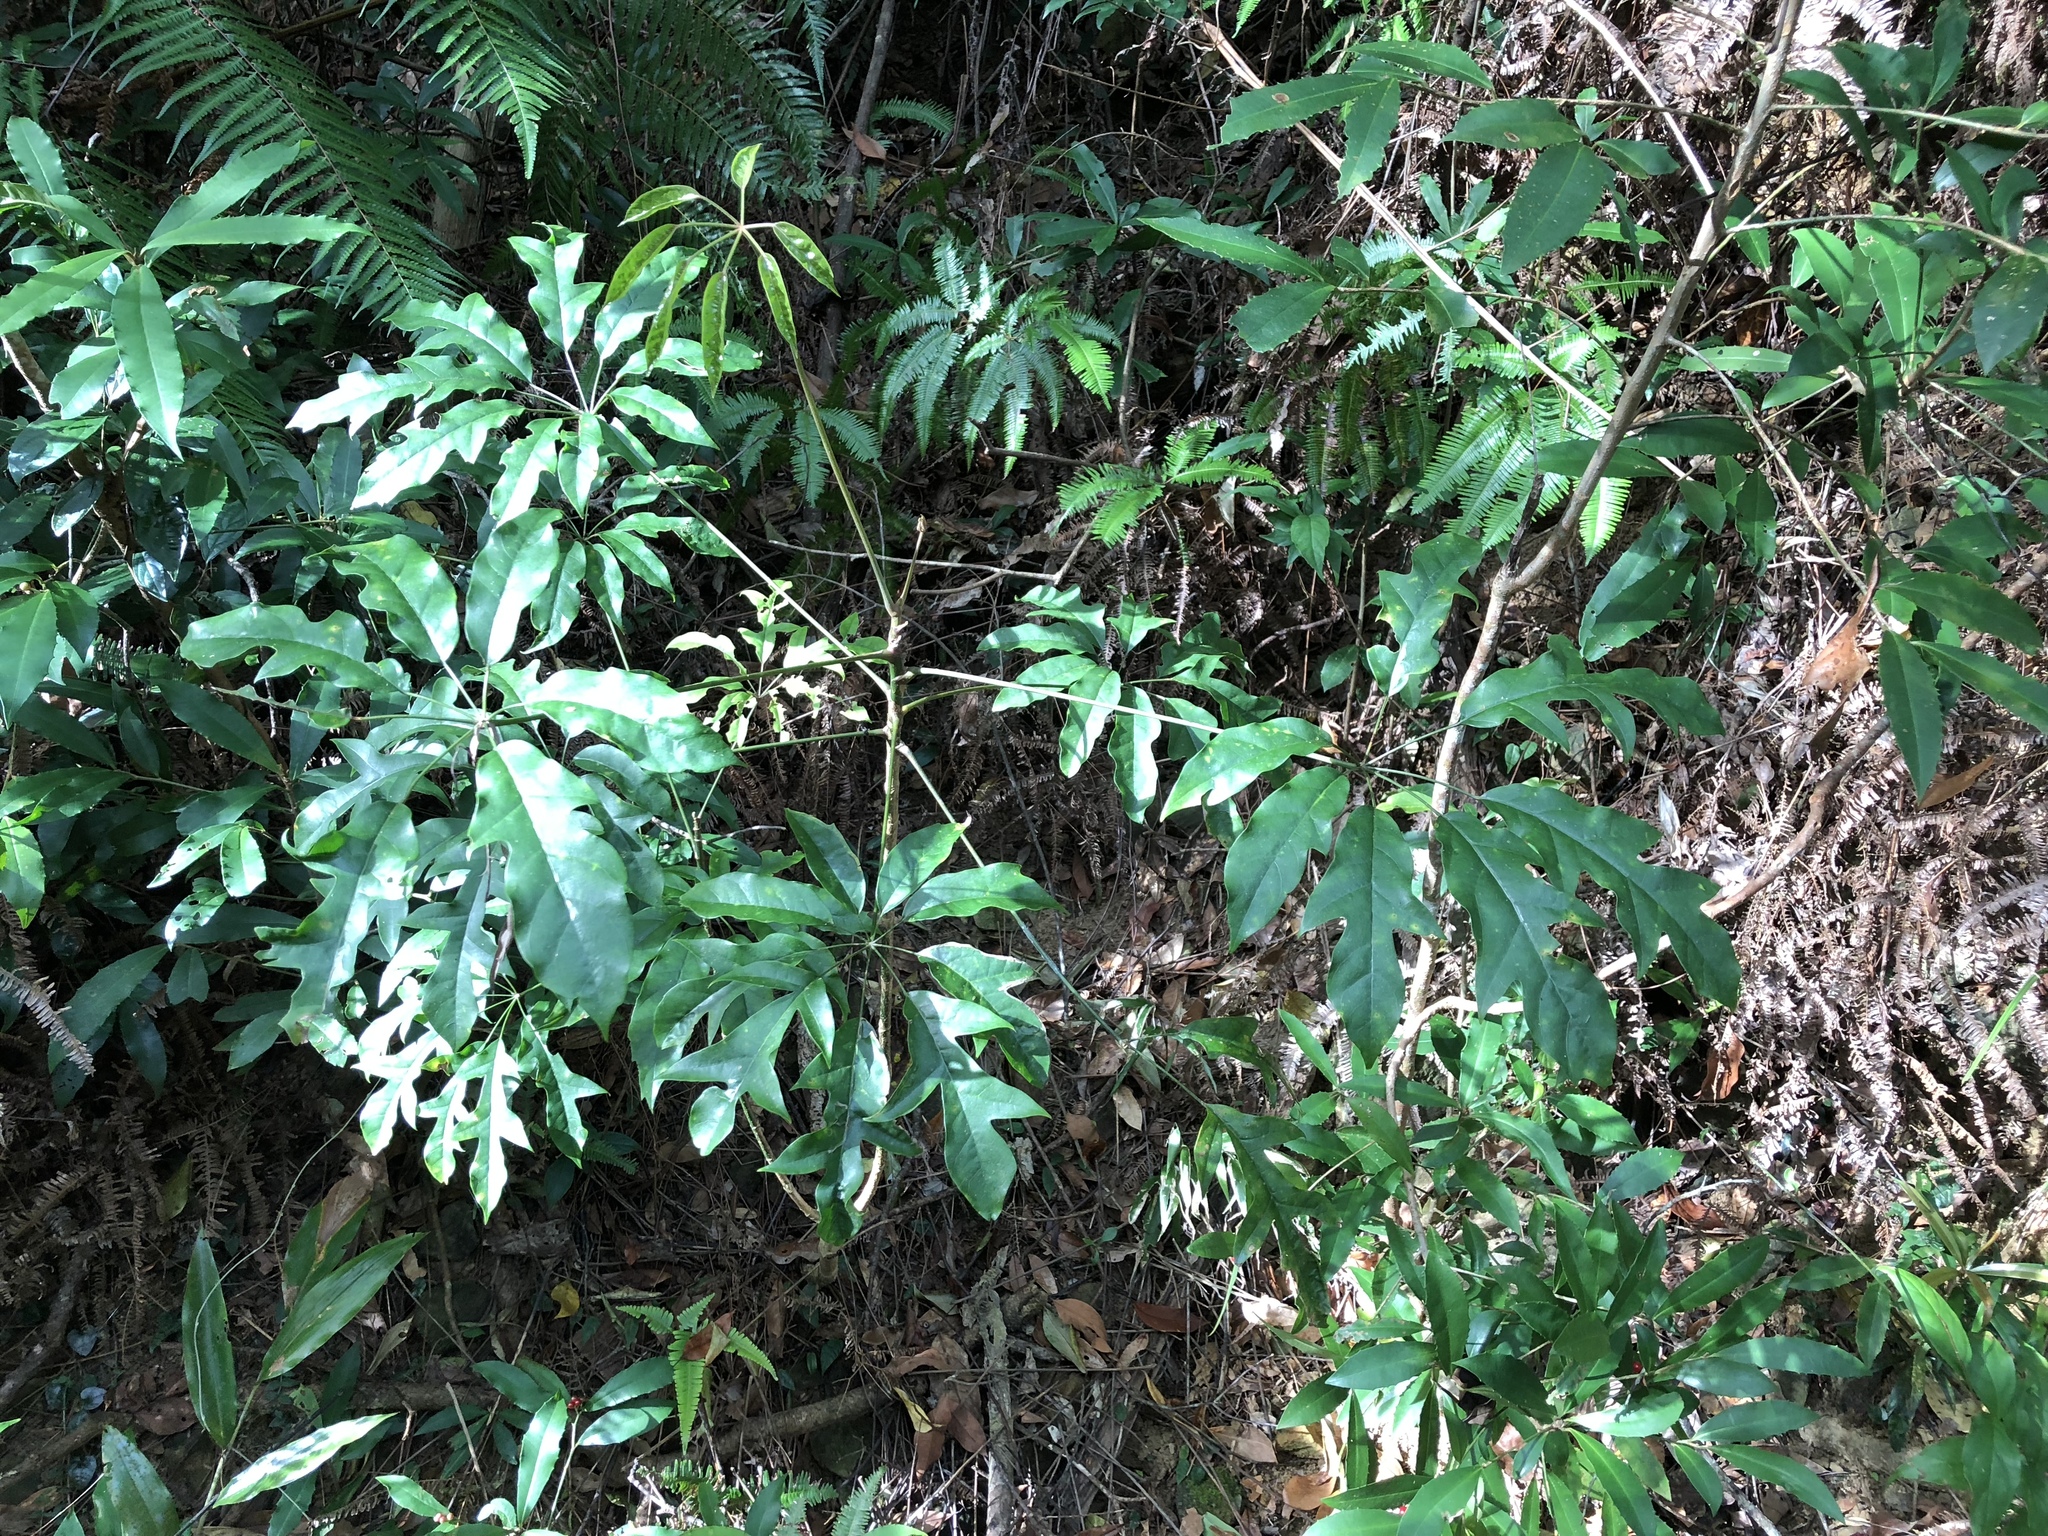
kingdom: Plantae
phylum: Tracheophyta
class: Magnoliopsida
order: Apiales
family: Araliaceae
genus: Heptapleurum
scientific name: Heptapleurum heptaphyllum
